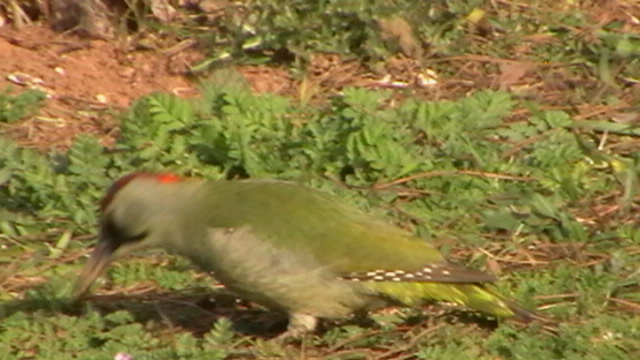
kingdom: Animalia
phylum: Chordata
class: Aves
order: Piciformes
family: Picidae
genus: Picus
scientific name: Picus sharpei
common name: Iberian green woodpecker
